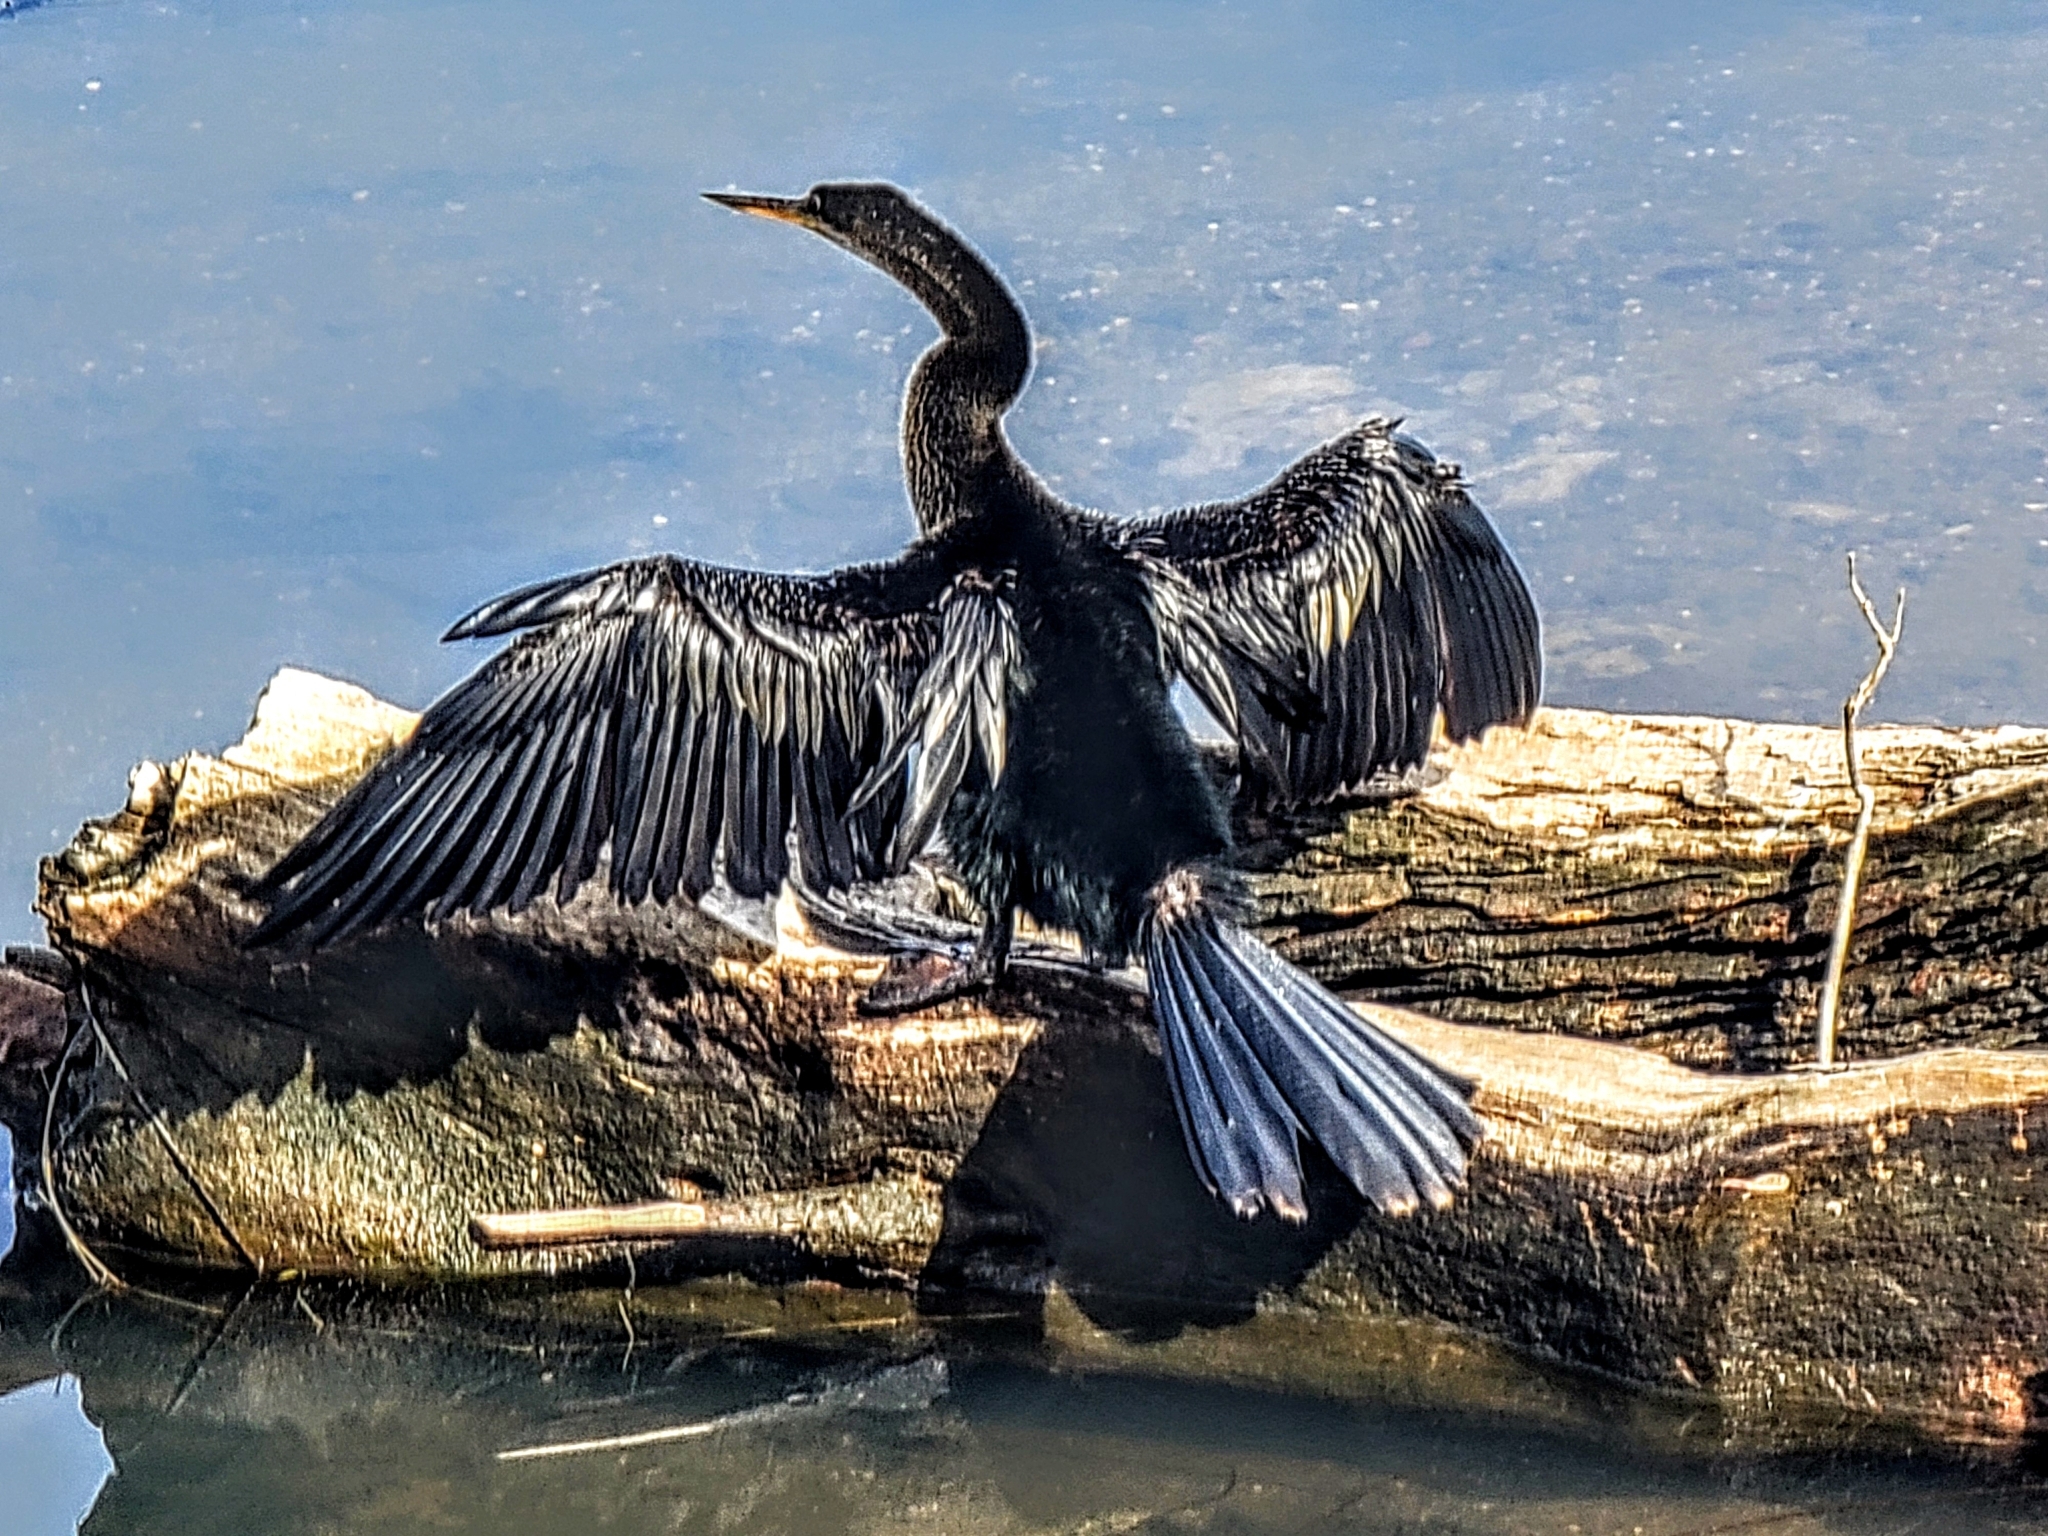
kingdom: Animalia
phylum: Chordata
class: Aves
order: Suliformes
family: Anhingidae
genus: Anhinga
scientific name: Anhinga anhinga
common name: Anhinga
